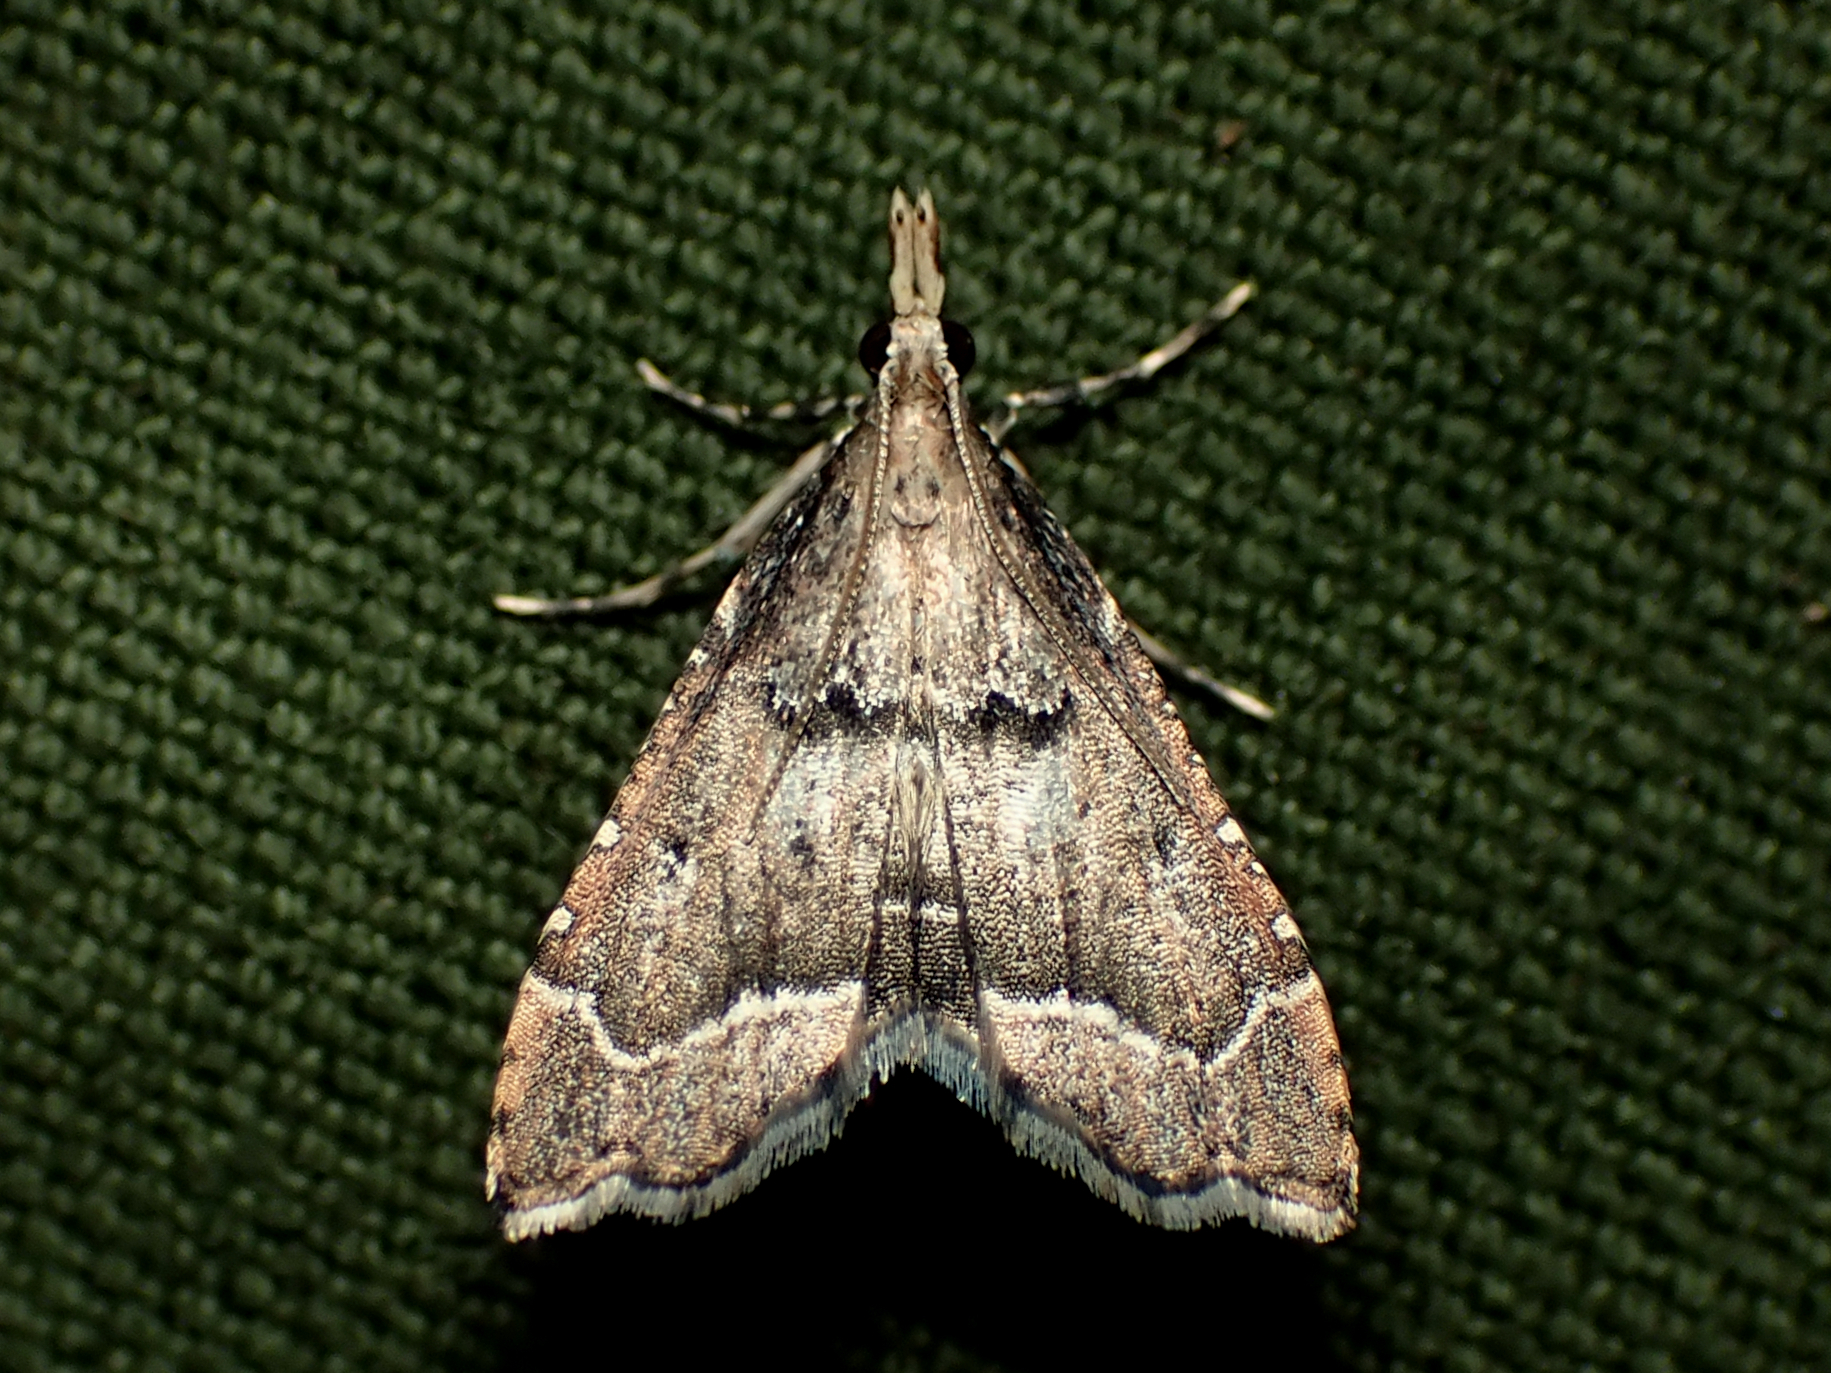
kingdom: Animalia
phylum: Arthropoda
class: Insecta
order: Lepidoptera
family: Crambidae
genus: Diplopseustis
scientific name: Diplopseustis perieresalis
